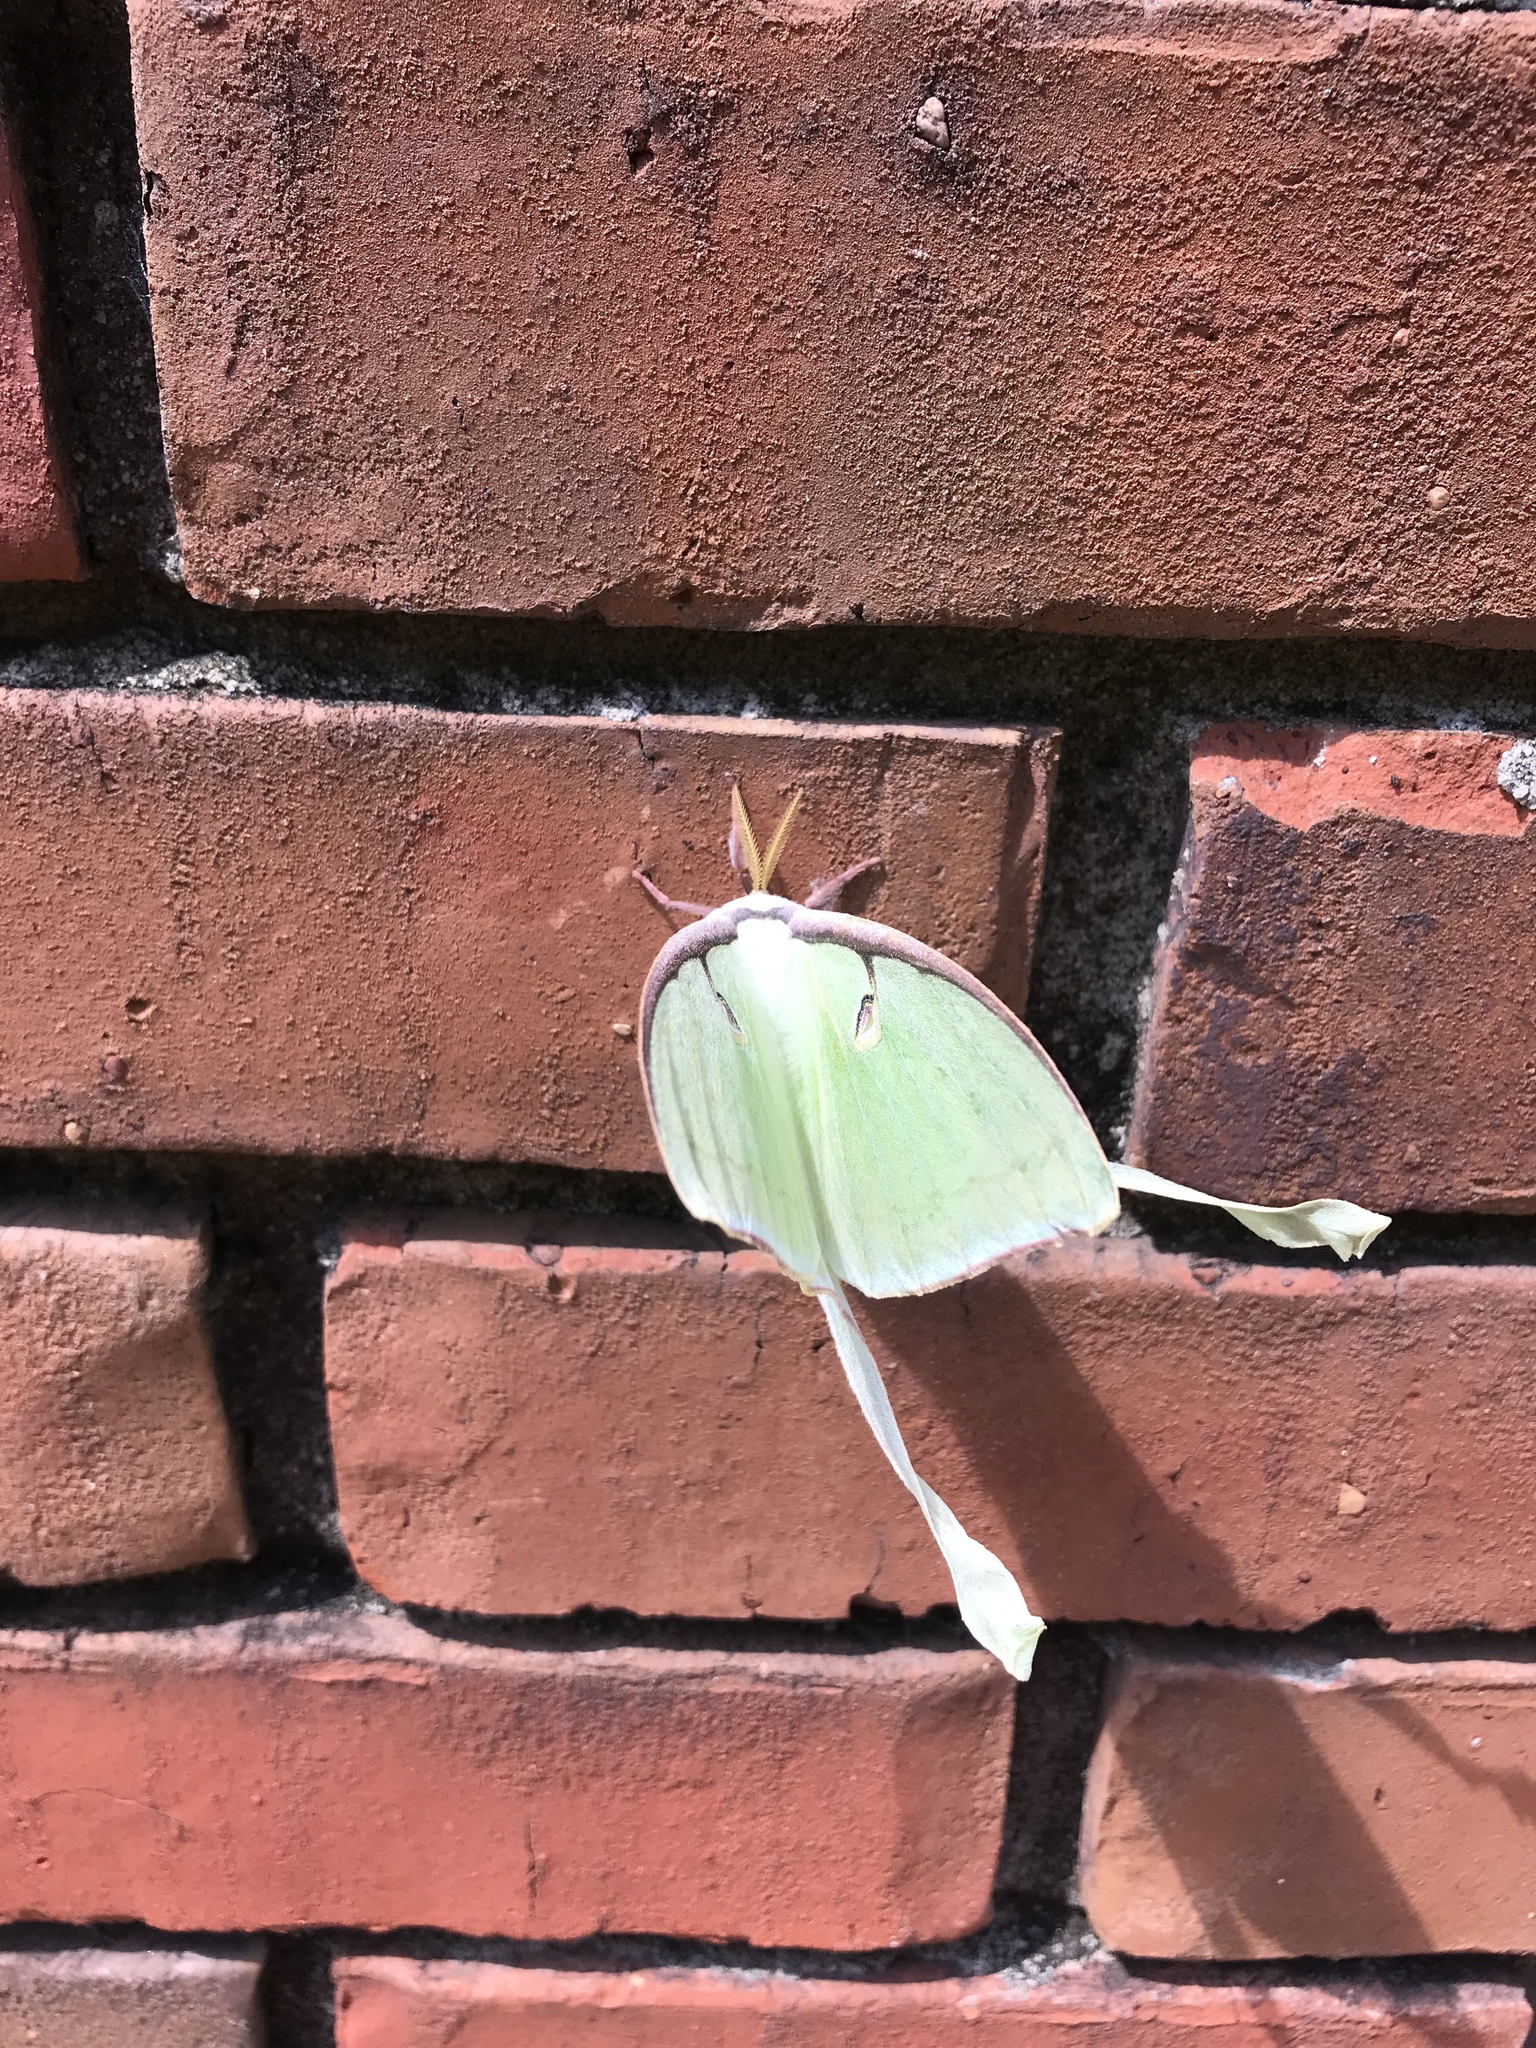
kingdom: Animalia
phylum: Arthropoda
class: Insecta
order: Lepidoptera
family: Saturniidae
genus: Actias
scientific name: Actias luna
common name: Luna moth
